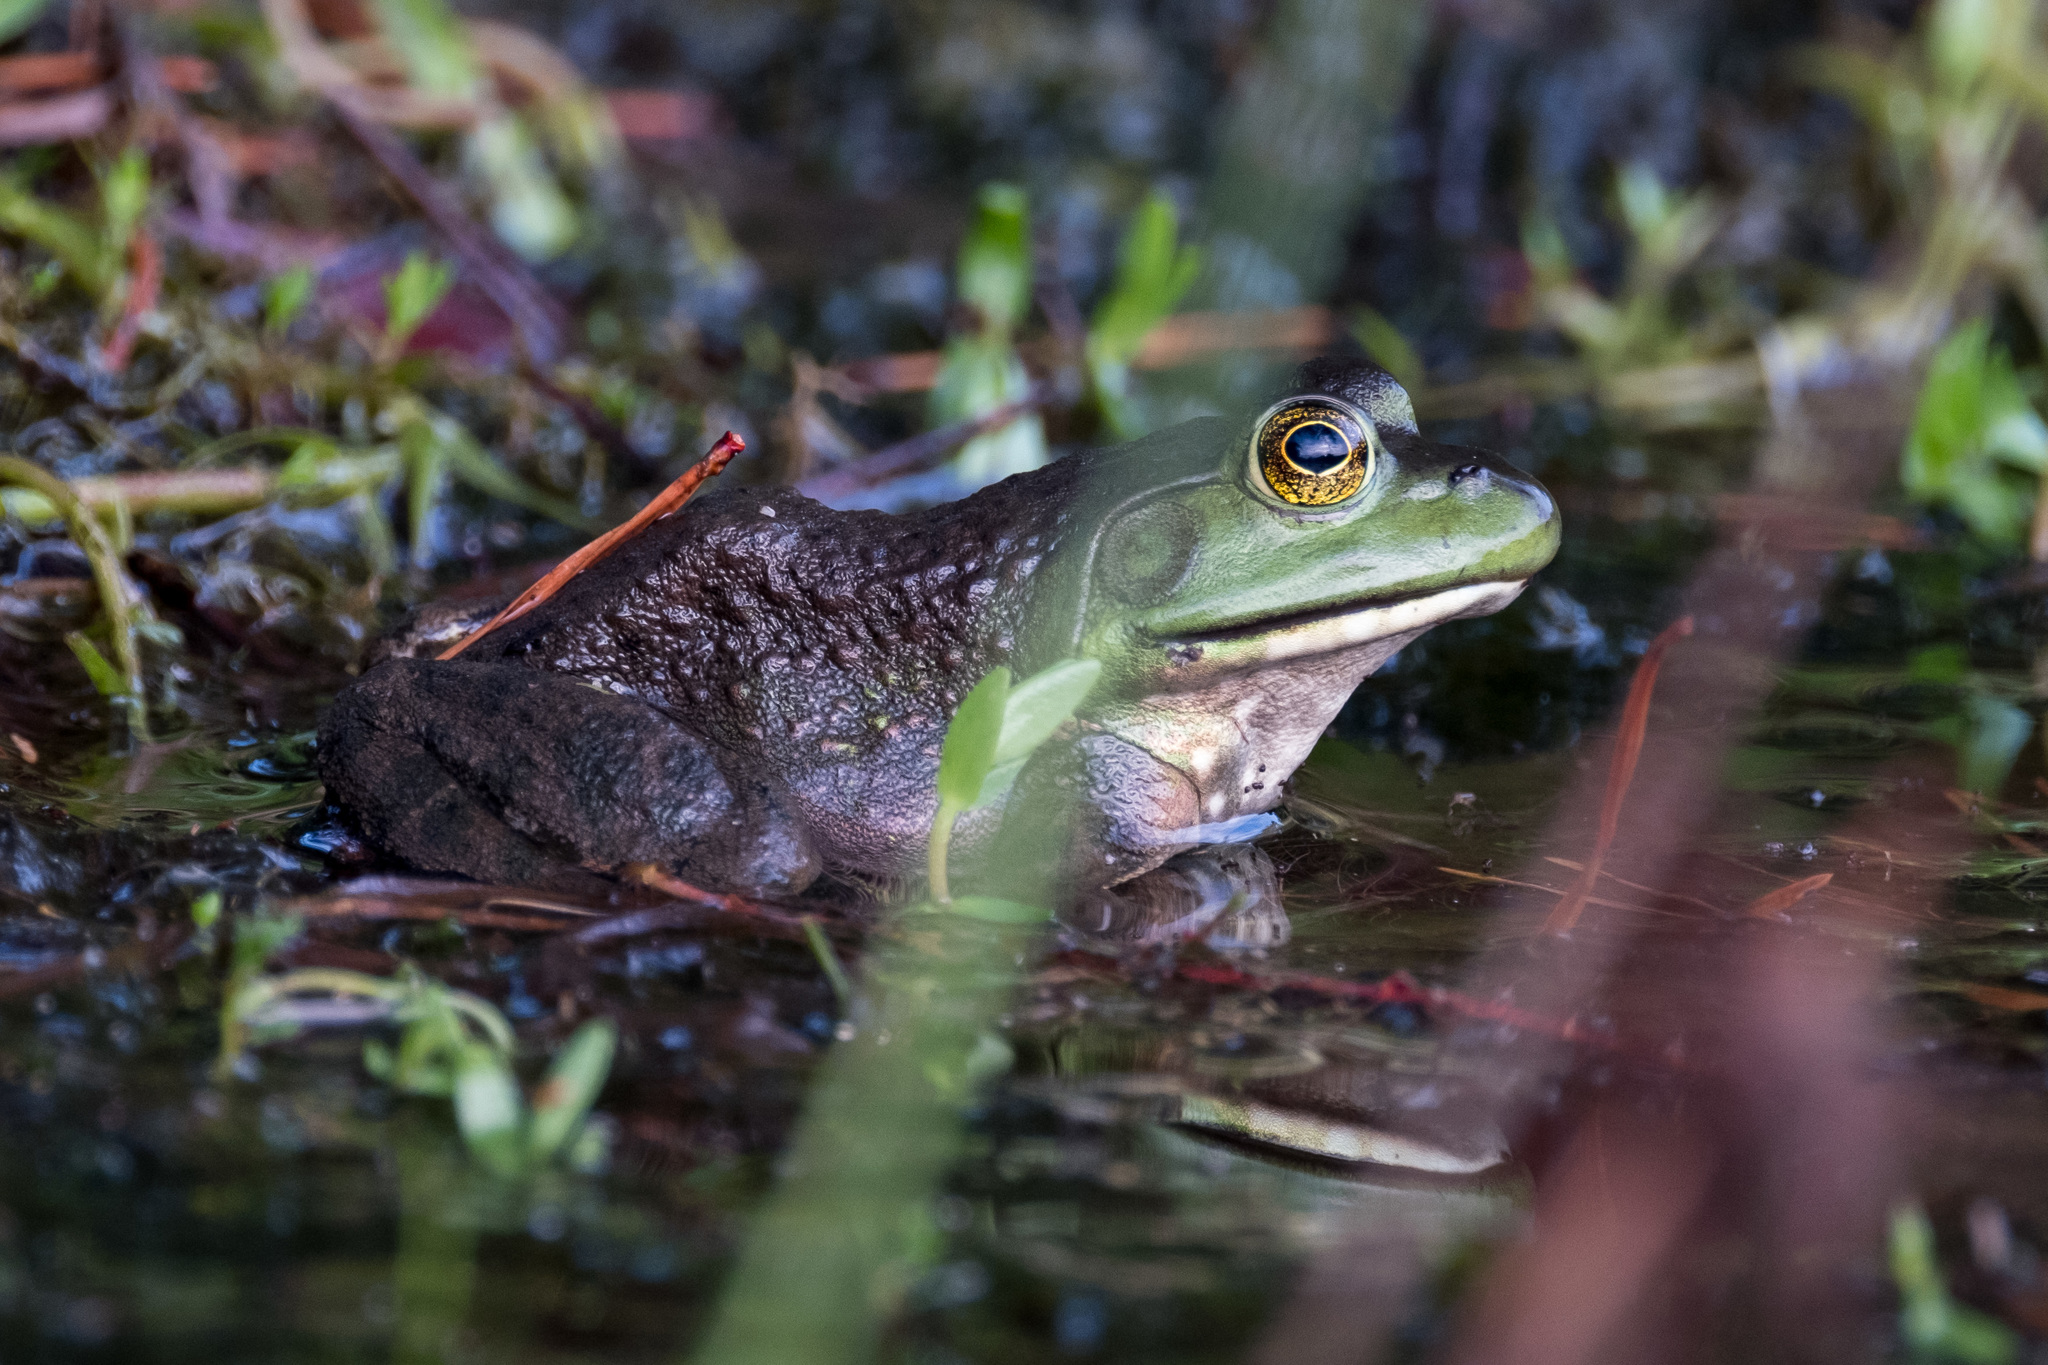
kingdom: Animalia
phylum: Chordata
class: Amphibia
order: Anura
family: Ranidae
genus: Lithobates
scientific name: Lithobates catesbeianus
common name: American bullfrog
